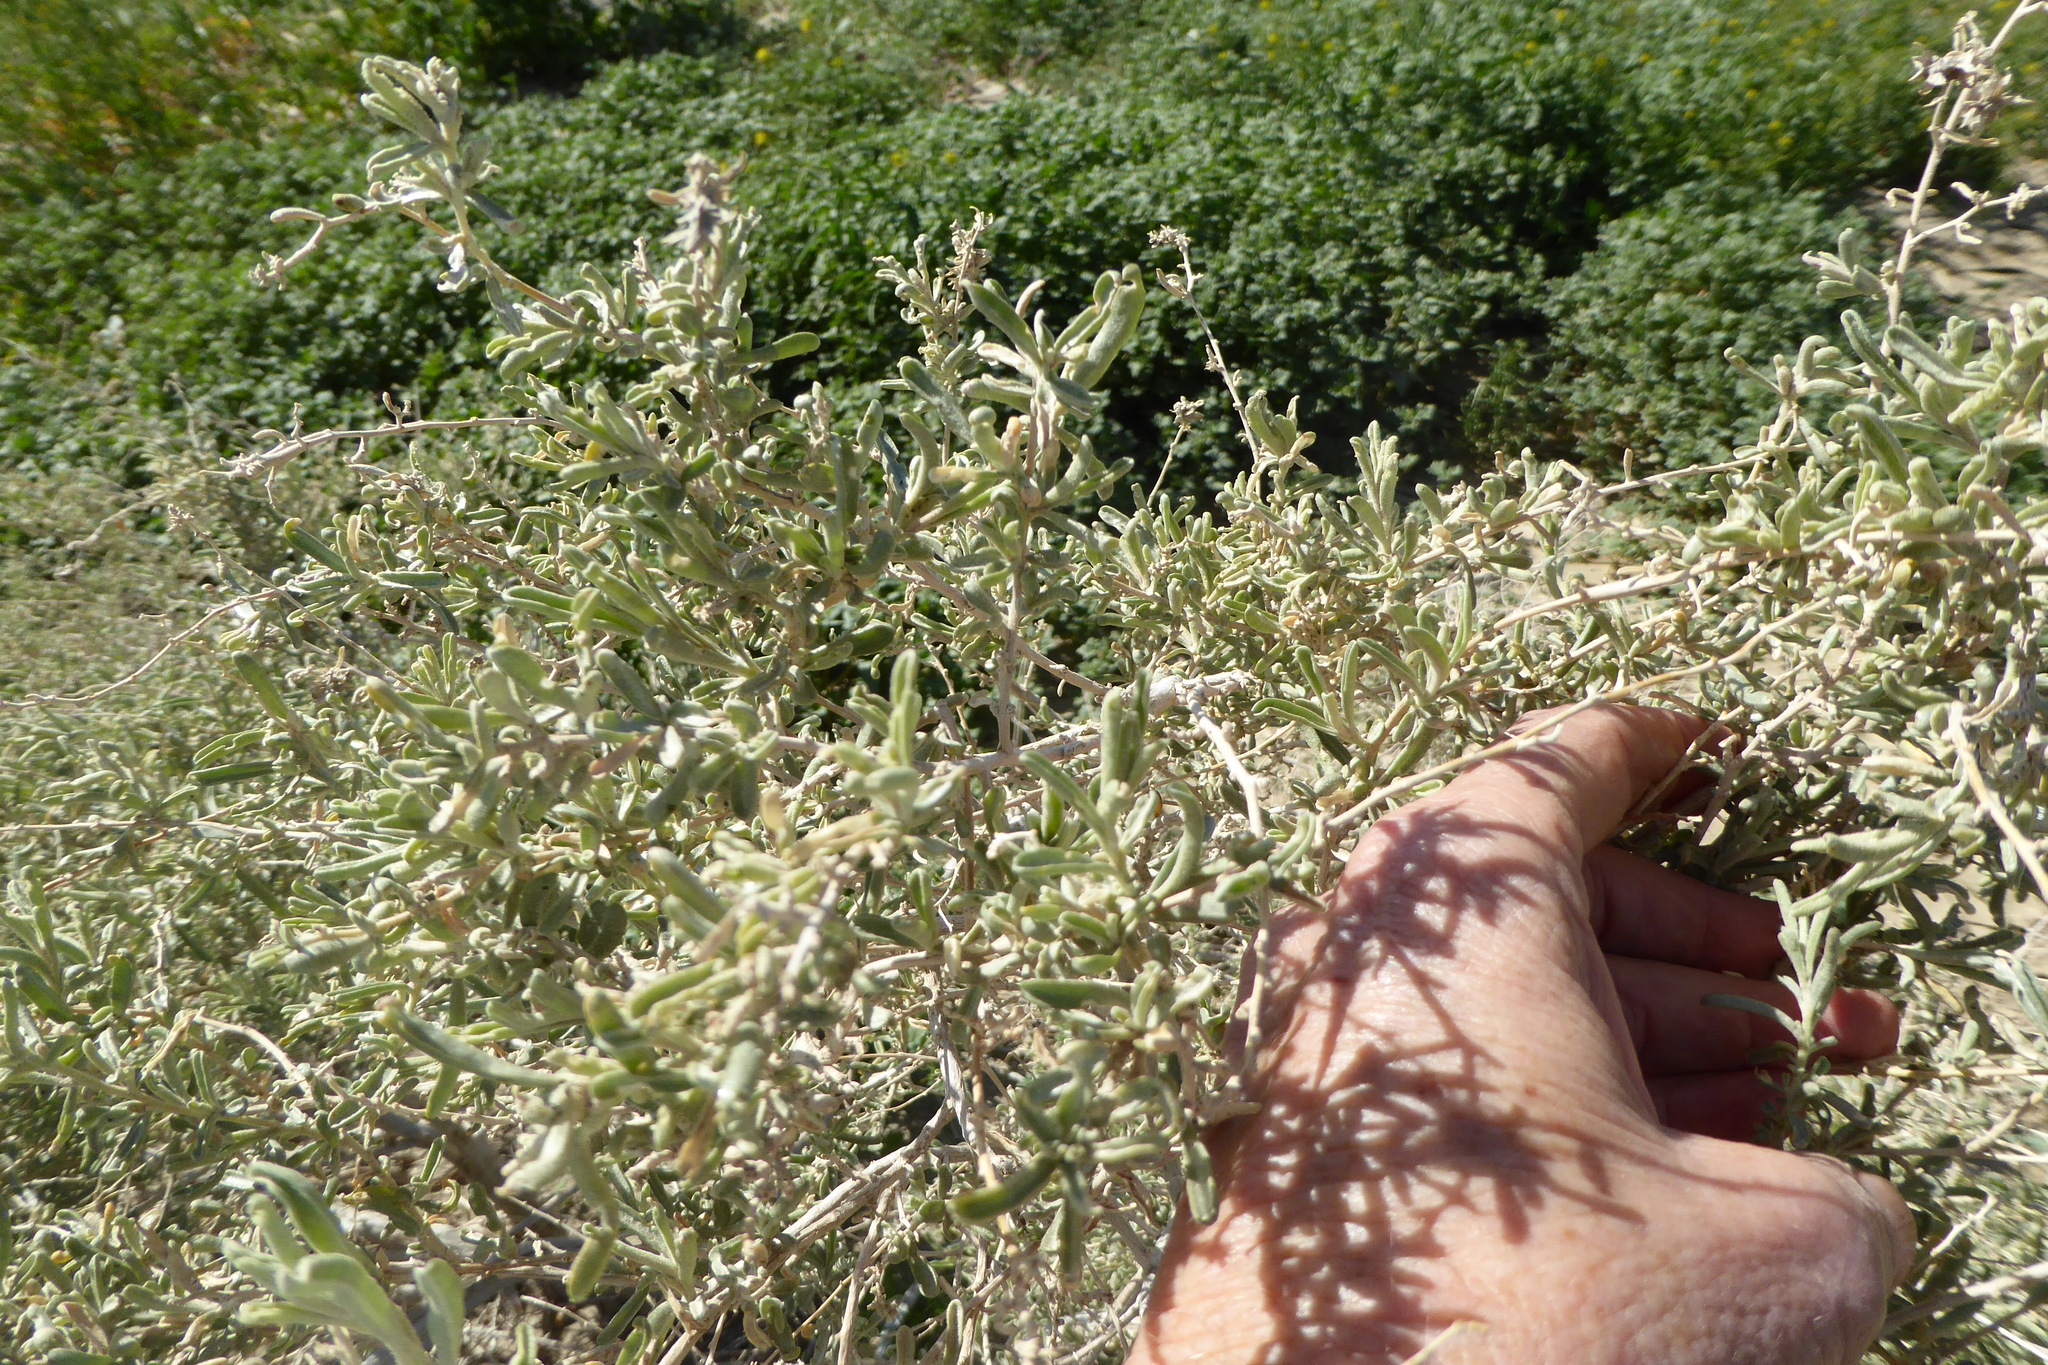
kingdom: Plantae
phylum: Tracheophyta
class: Magnoliopsida
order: Caryophyllales
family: Amaranthaceae
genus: Atriplex
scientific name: Atriplex canescens
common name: Four-wing saltbush
